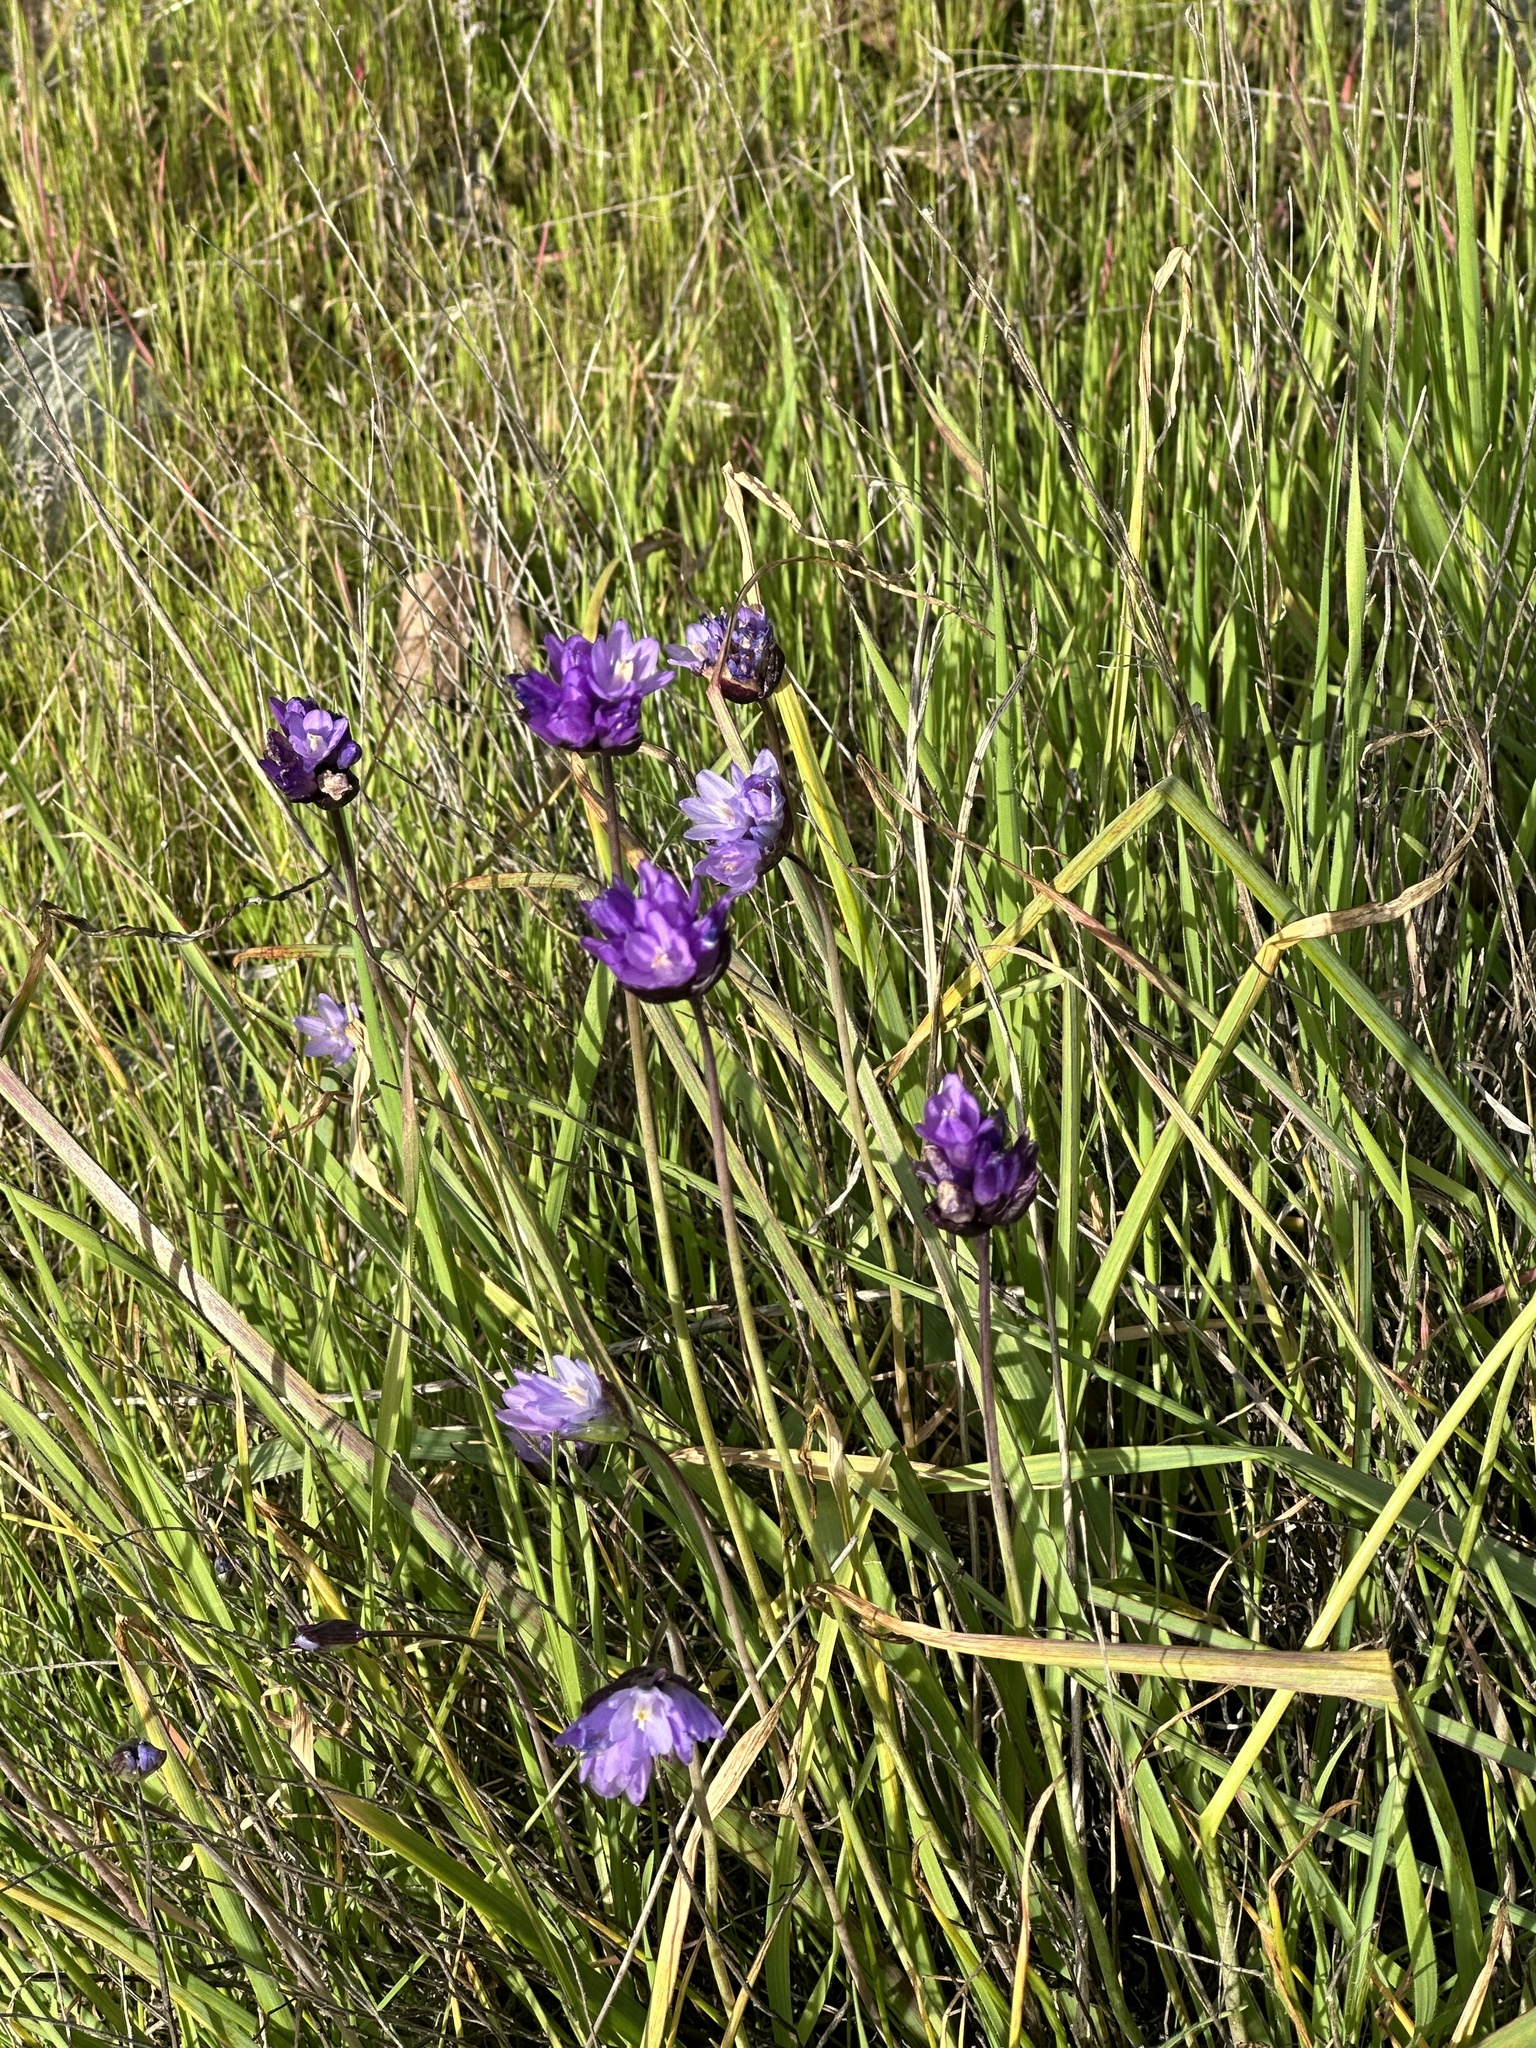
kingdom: Plantae
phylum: Tracheophyta
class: Liliopsida
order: Asparagales
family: Asparagaceae
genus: Dipterostemon
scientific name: Dipterostemon capitatus
